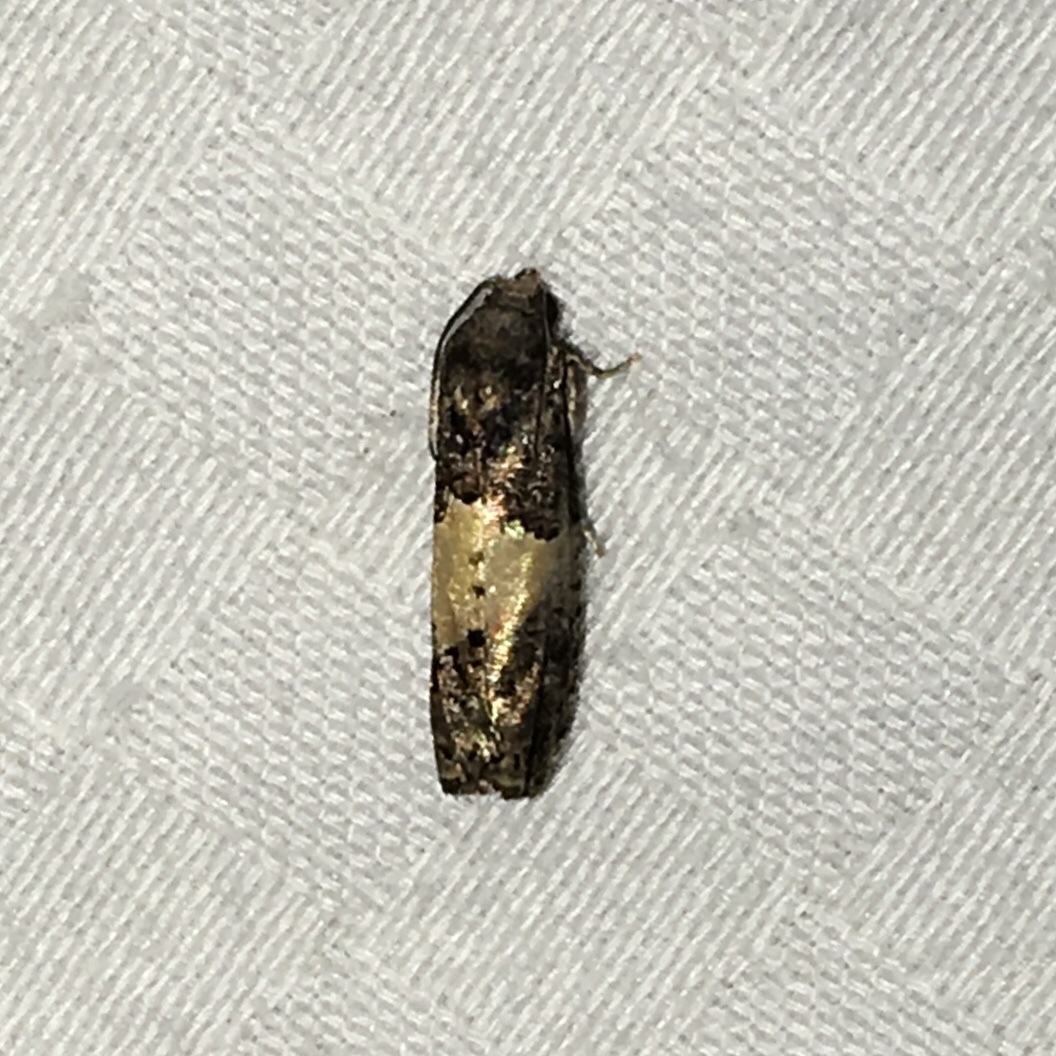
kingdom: Animalia
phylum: Arthropoda
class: Insecta
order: Lepidoptera
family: Tortricidae
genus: Epiblema
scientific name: Epiblema glenni
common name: Glenn's epiblema
